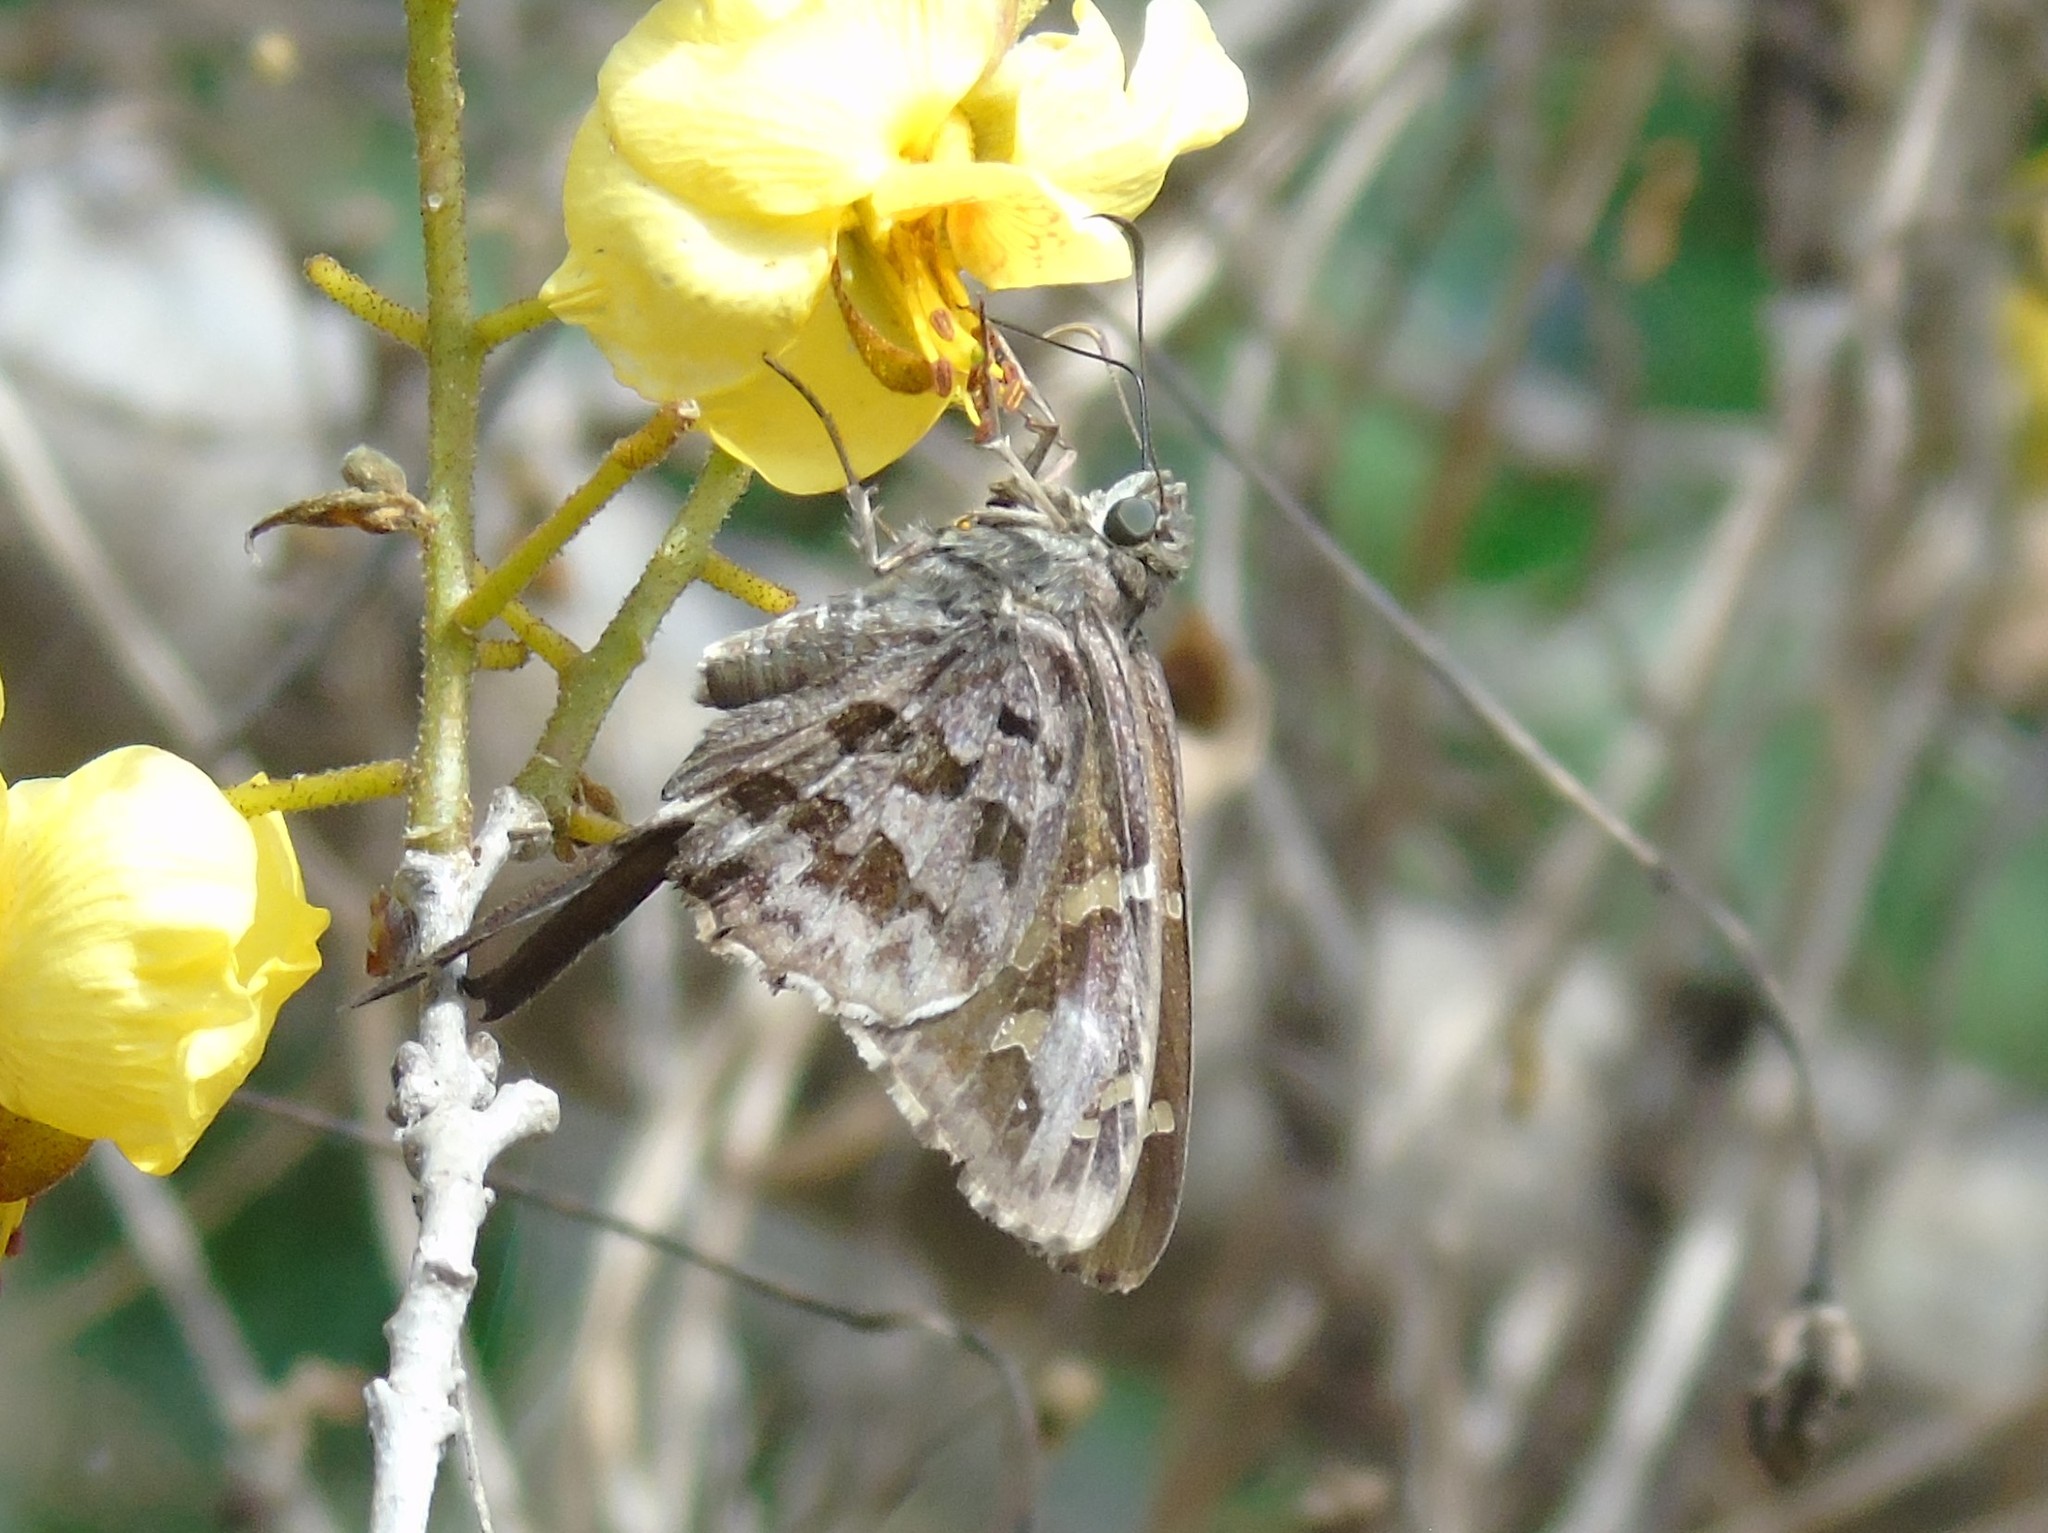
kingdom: Animalia
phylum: Arthropoda
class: Insecta
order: Lepidoptera
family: Hesperiidae
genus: Thorybes
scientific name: Thorybes
